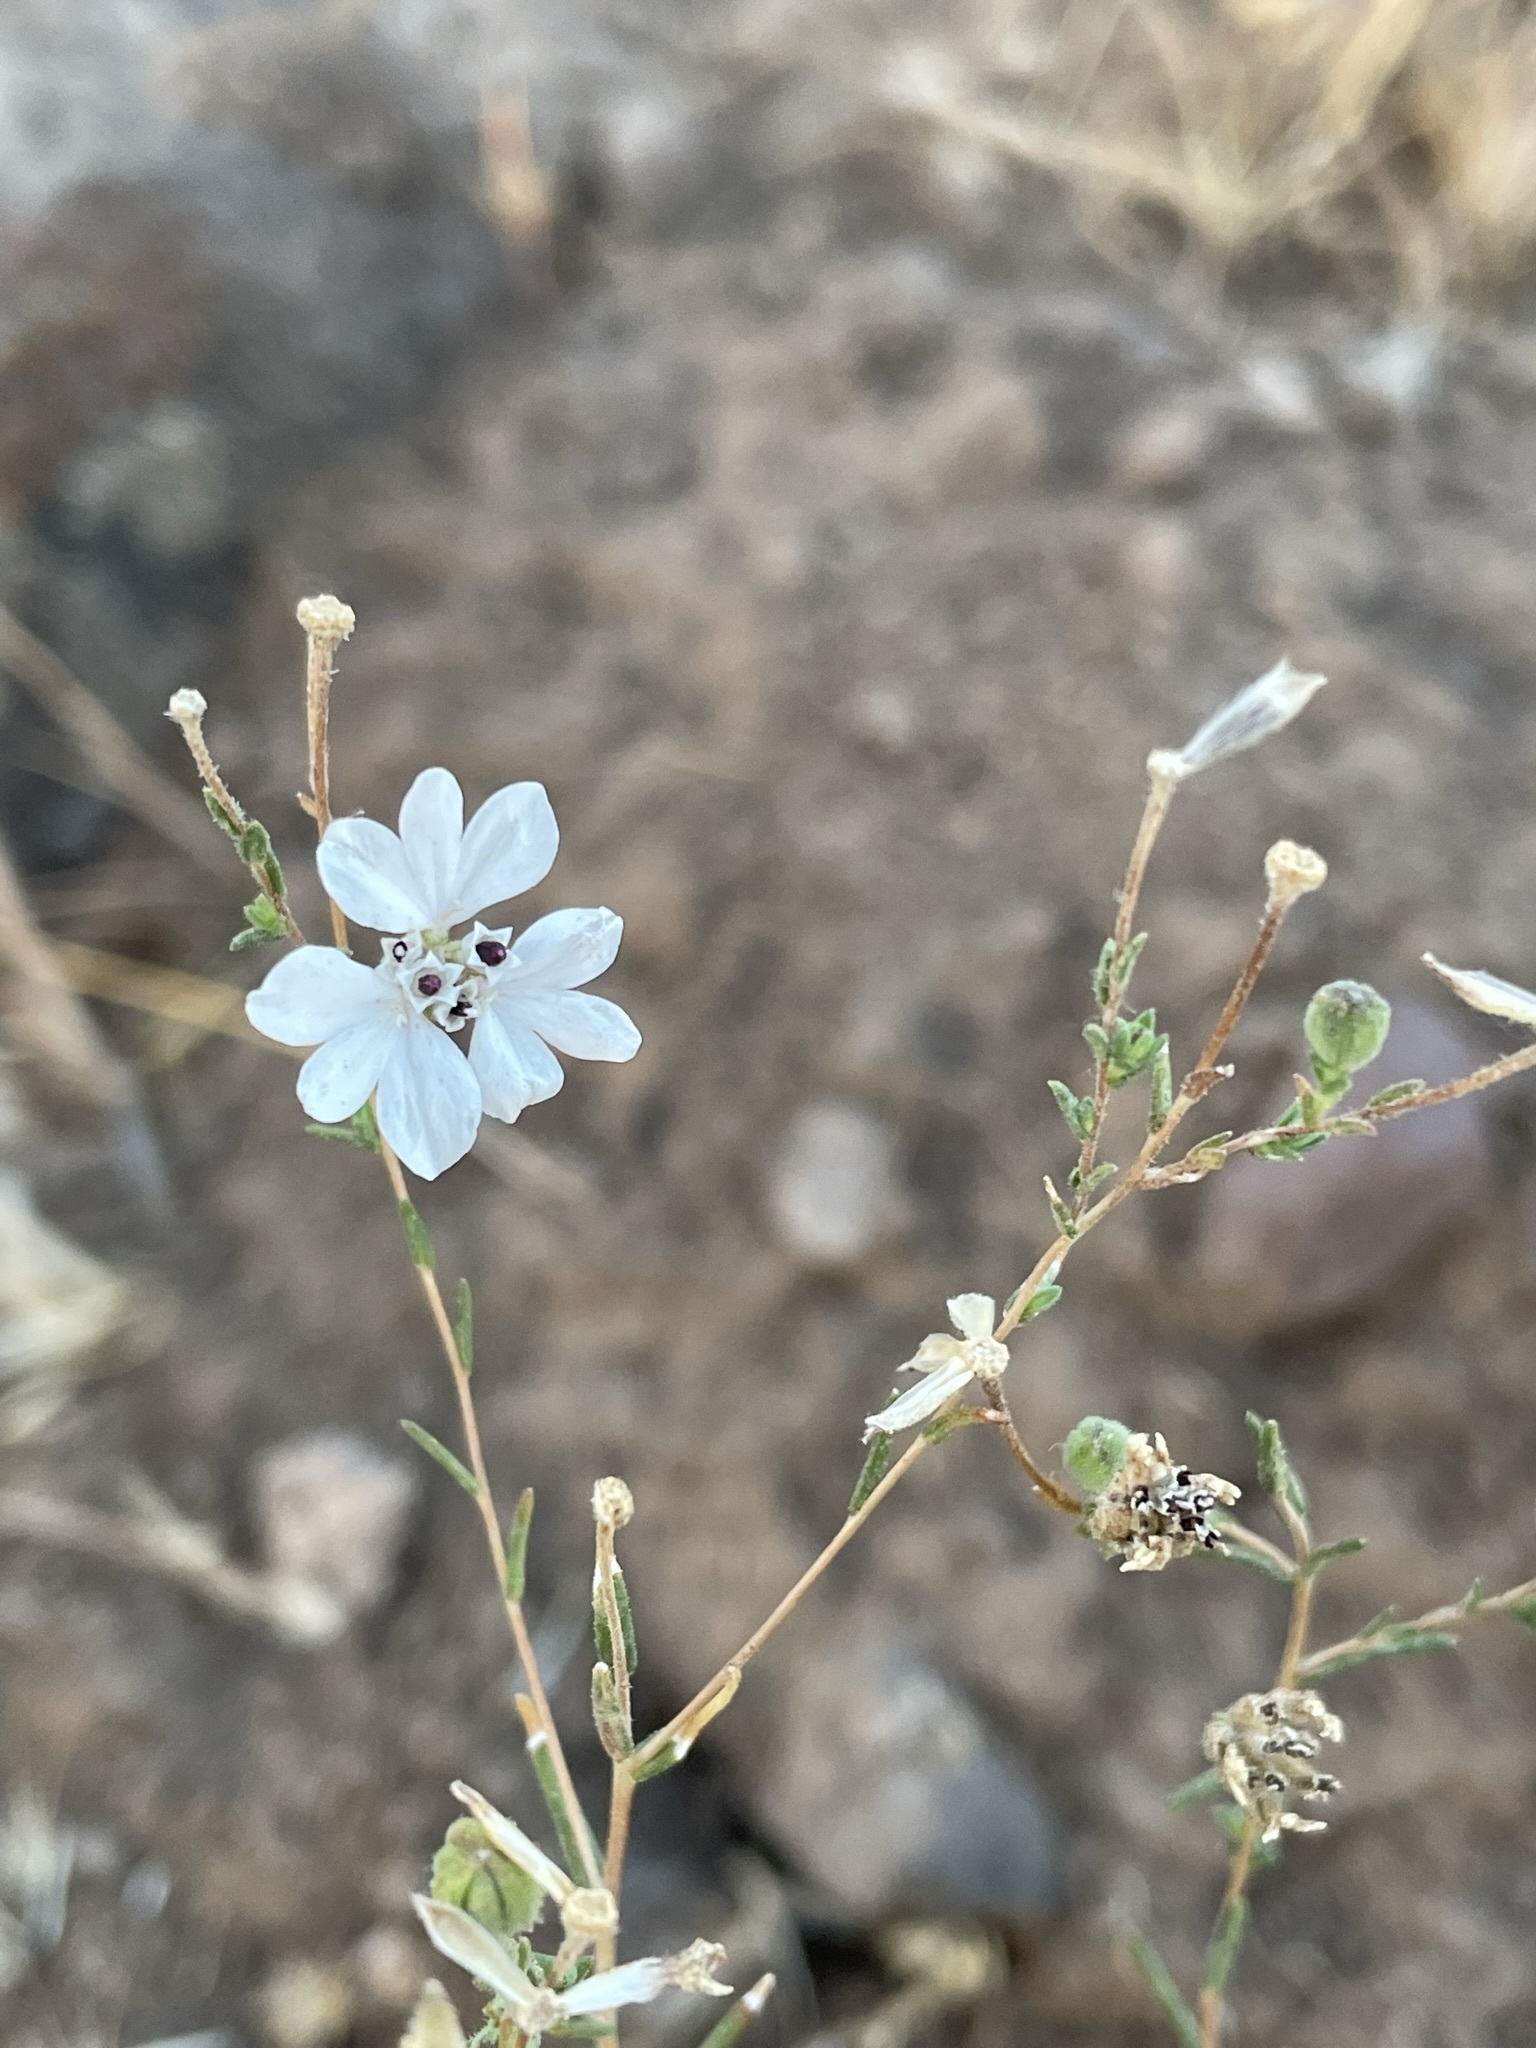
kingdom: Plantae
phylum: Tracheophyta
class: Magnoliopsida
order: Asterales
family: Asteraceae
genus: Blepharipappus
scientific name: Blepharipappus scaber
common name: Rough blepharipappus
